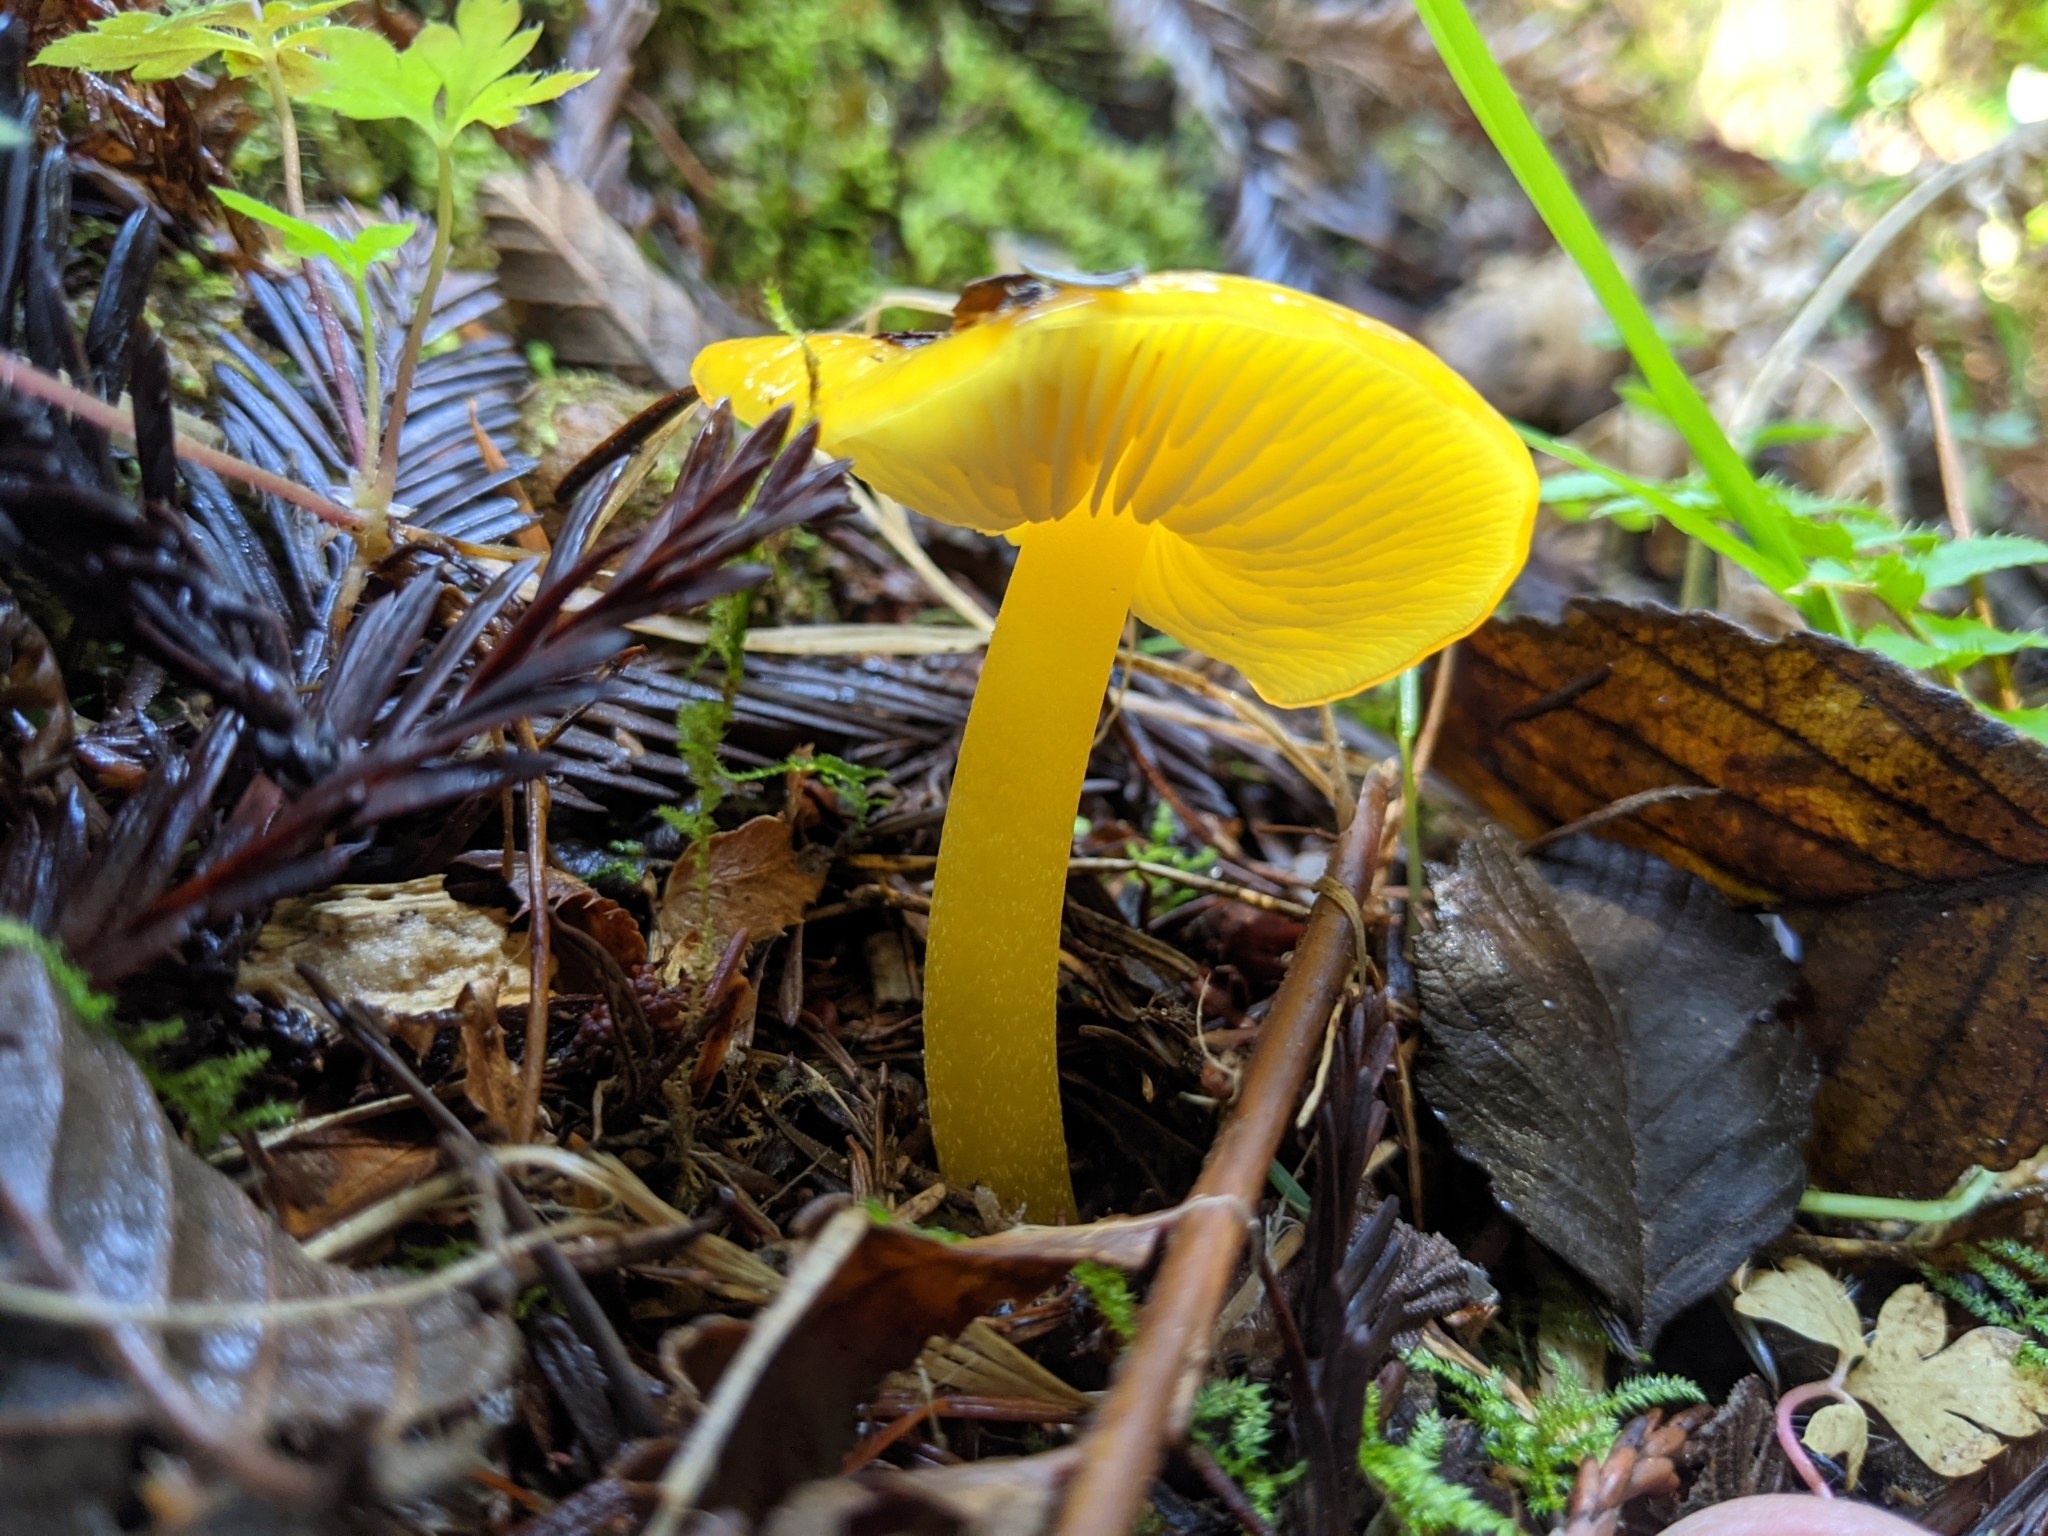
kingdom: Fungi
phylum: Basidiomycota
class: Agaricomycetes
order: Agaricales
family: Hygrophoraceae
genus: Hygrocybe
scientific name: Hygrocybe flavescens
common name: Golden waxy cap
